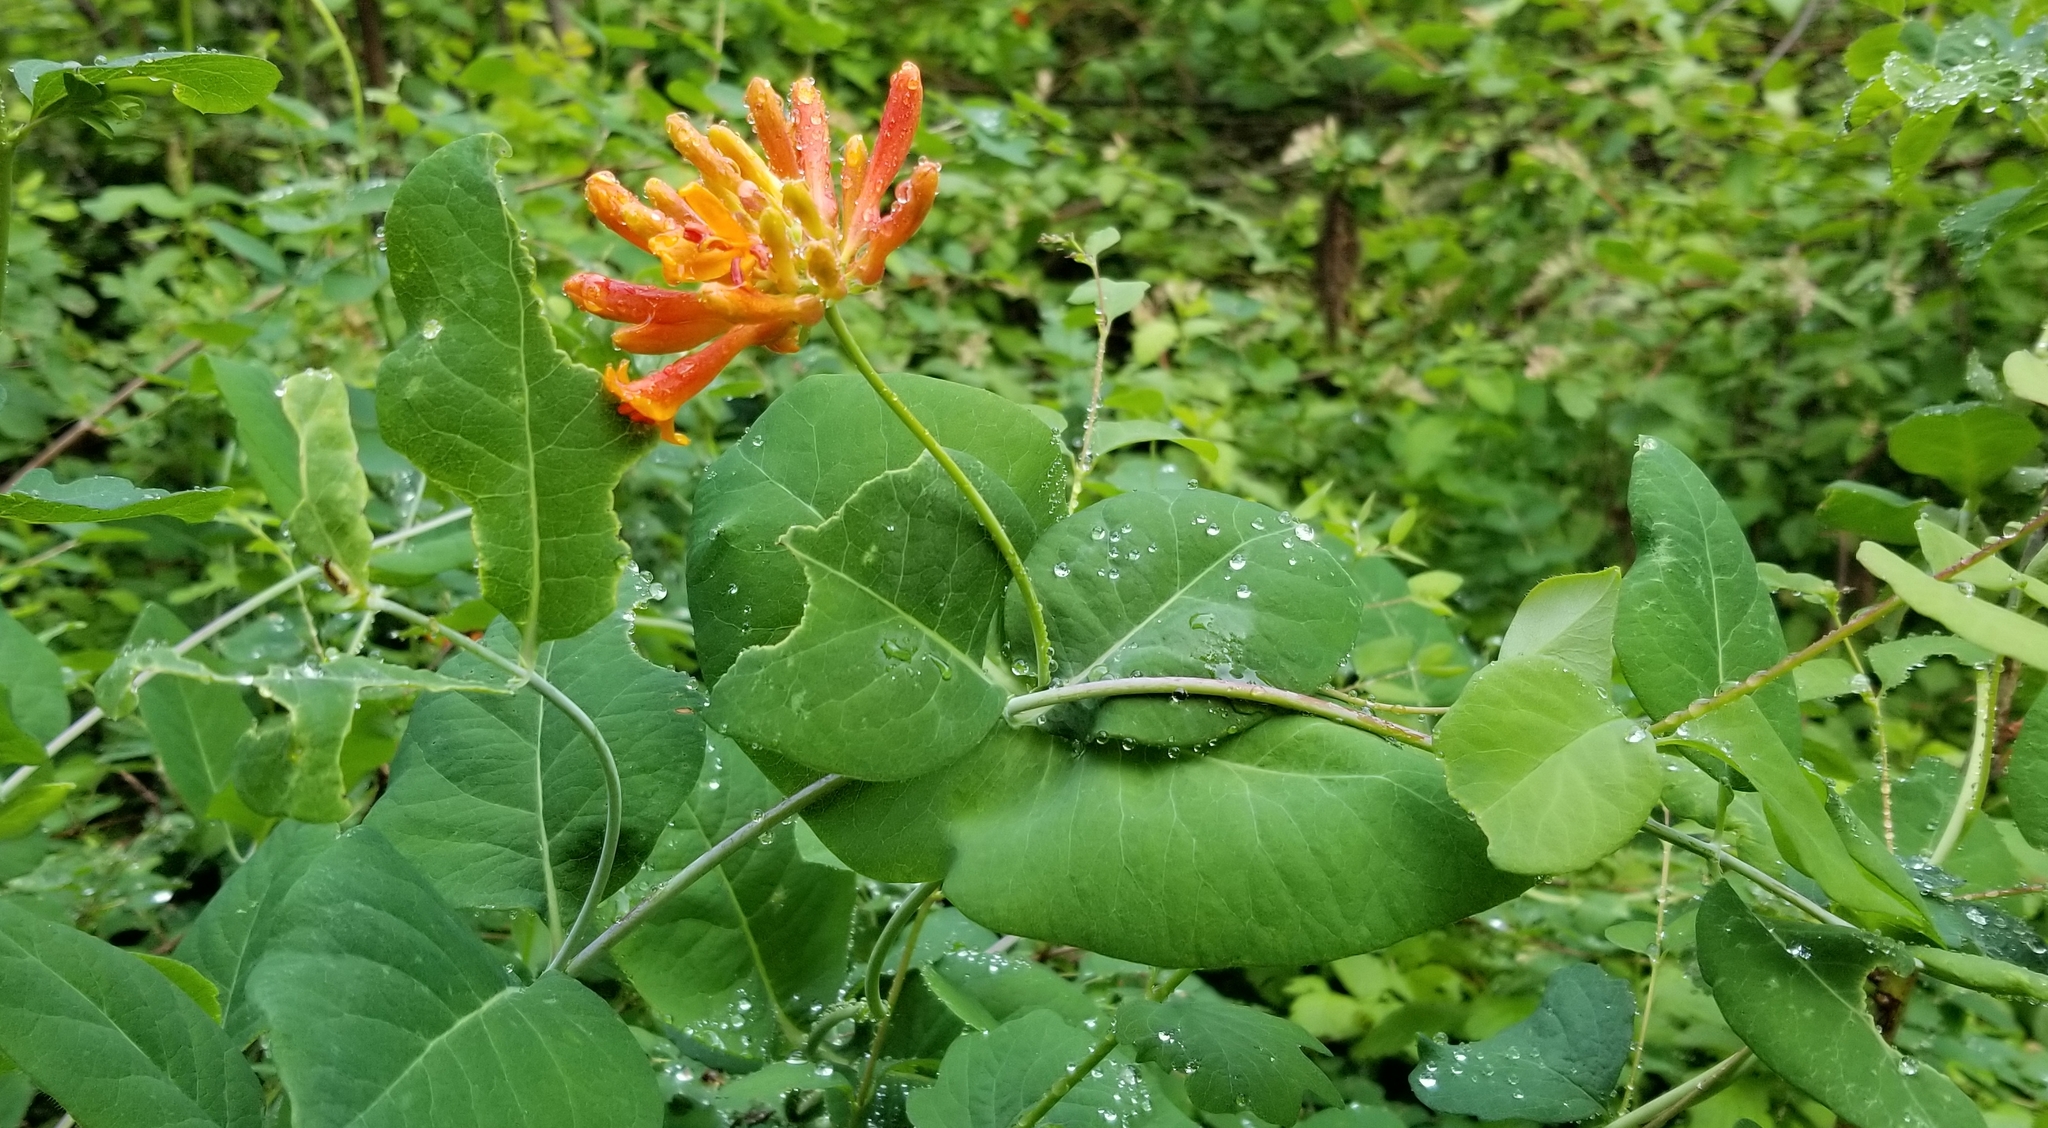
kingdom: Plantae
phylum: Tracheophyta
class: Magnoliopsida
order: Dipsacales
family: Caprifoliaceae
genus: Lonicera
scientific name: Lonicera ciliosa
